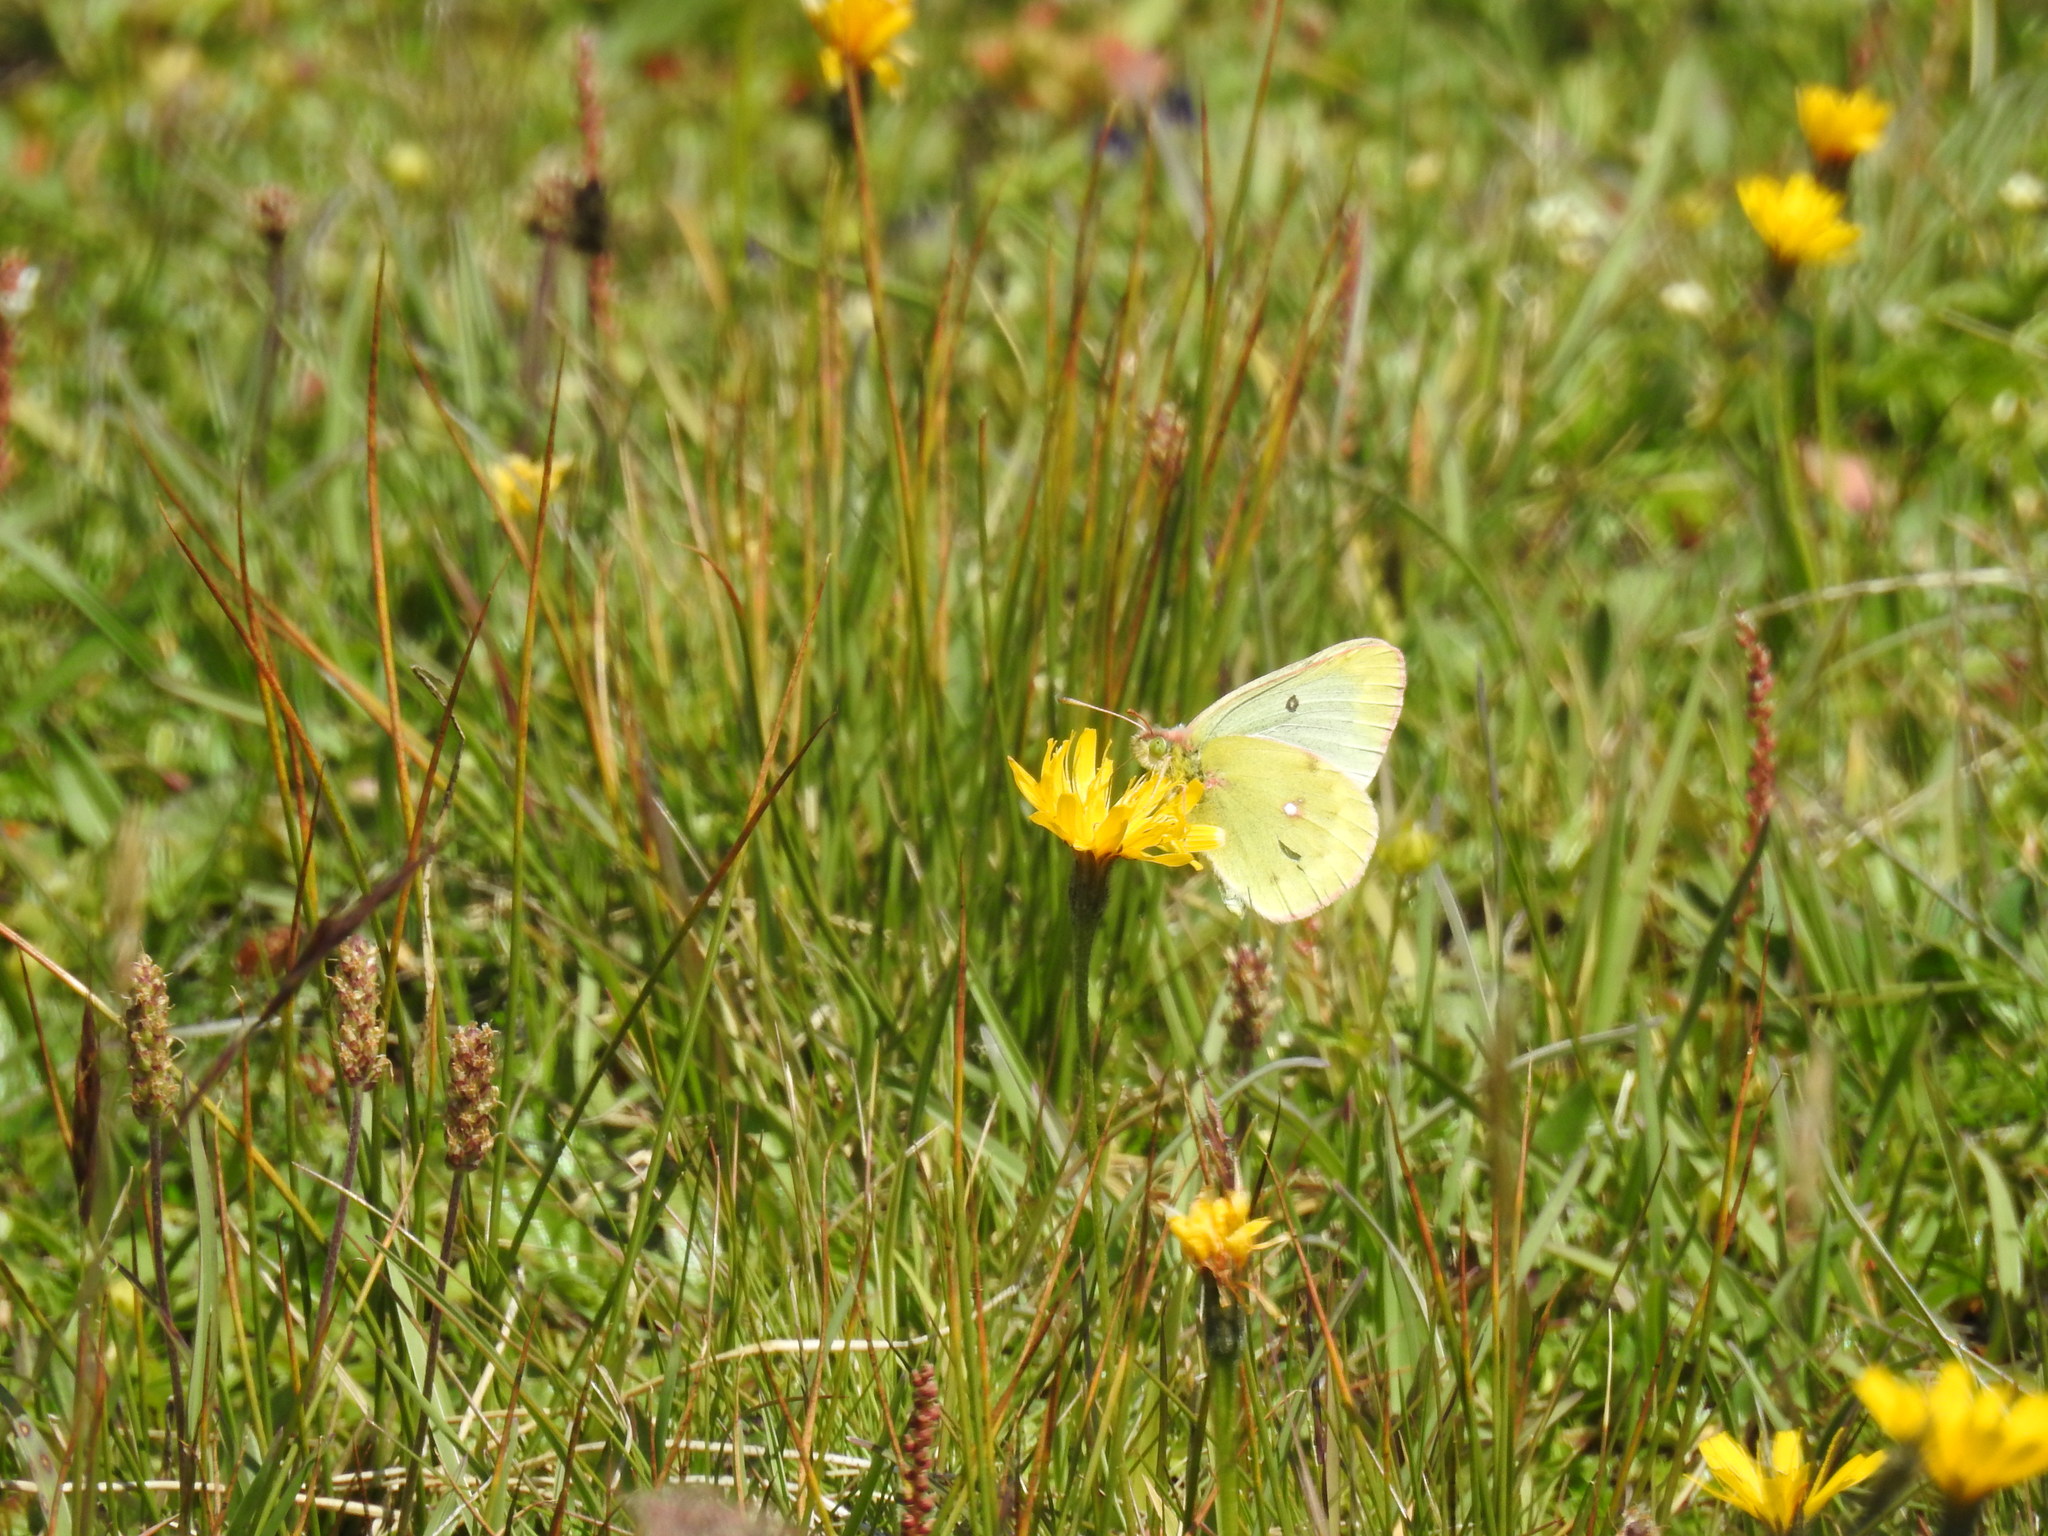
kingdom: Animalia
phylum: Arthropoda
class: Insecta
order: Lepidoptera
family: Pieridae
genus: Colias
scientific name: Colias phicomone
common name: Mountain clouded yellow
